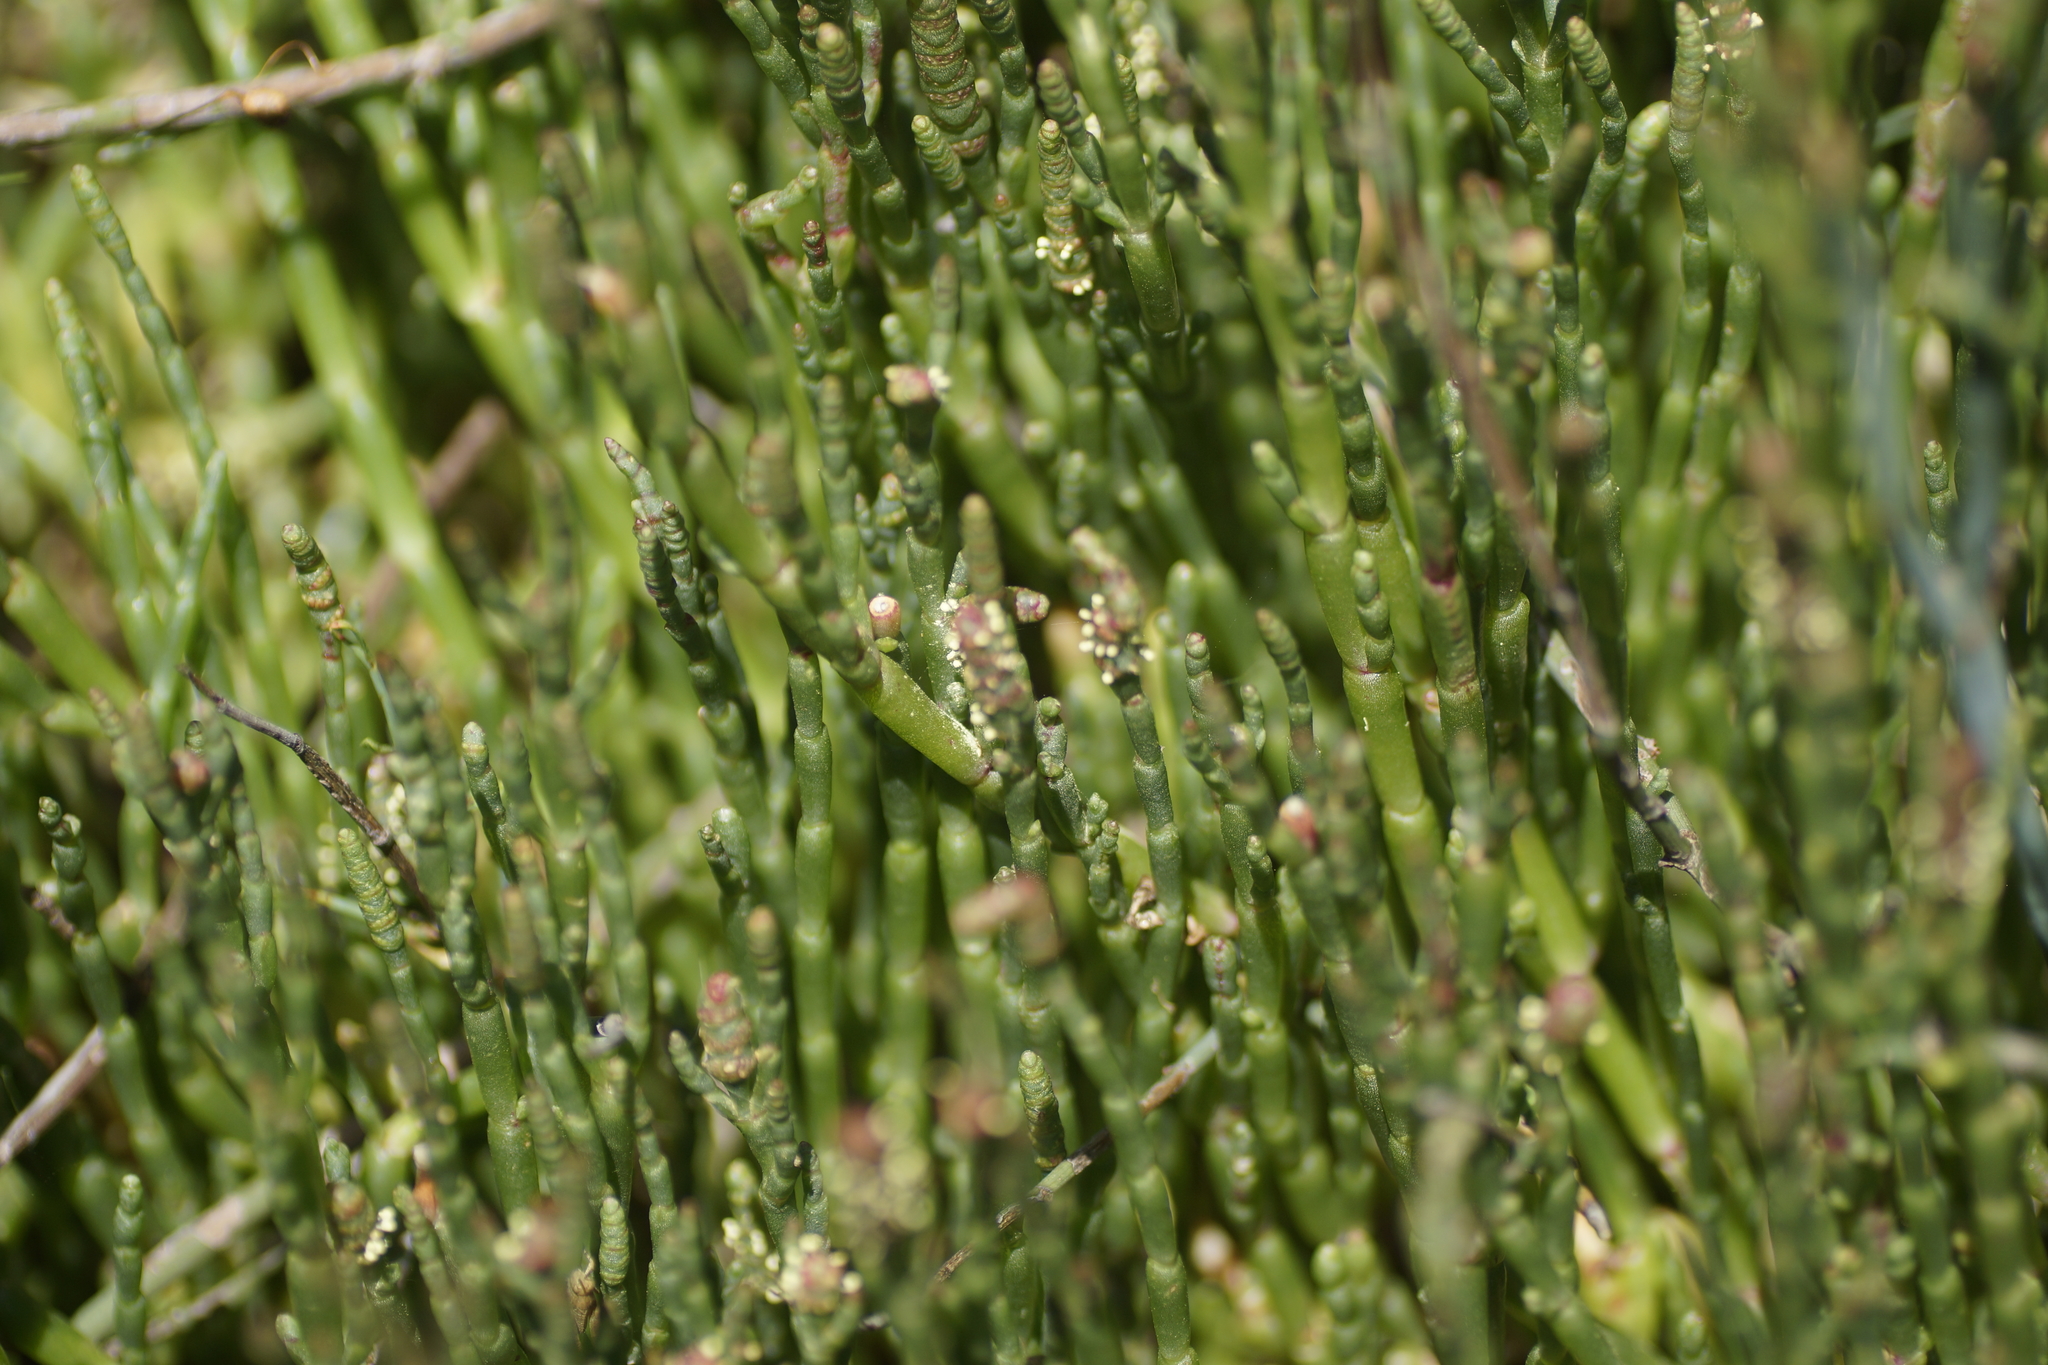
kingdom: Plantae
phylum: Tracheophyta
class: Magnoliopsida
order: Caryophyllales
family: Amaranthaceae
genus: Salicornia
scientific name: Salicornia quinqueflora
